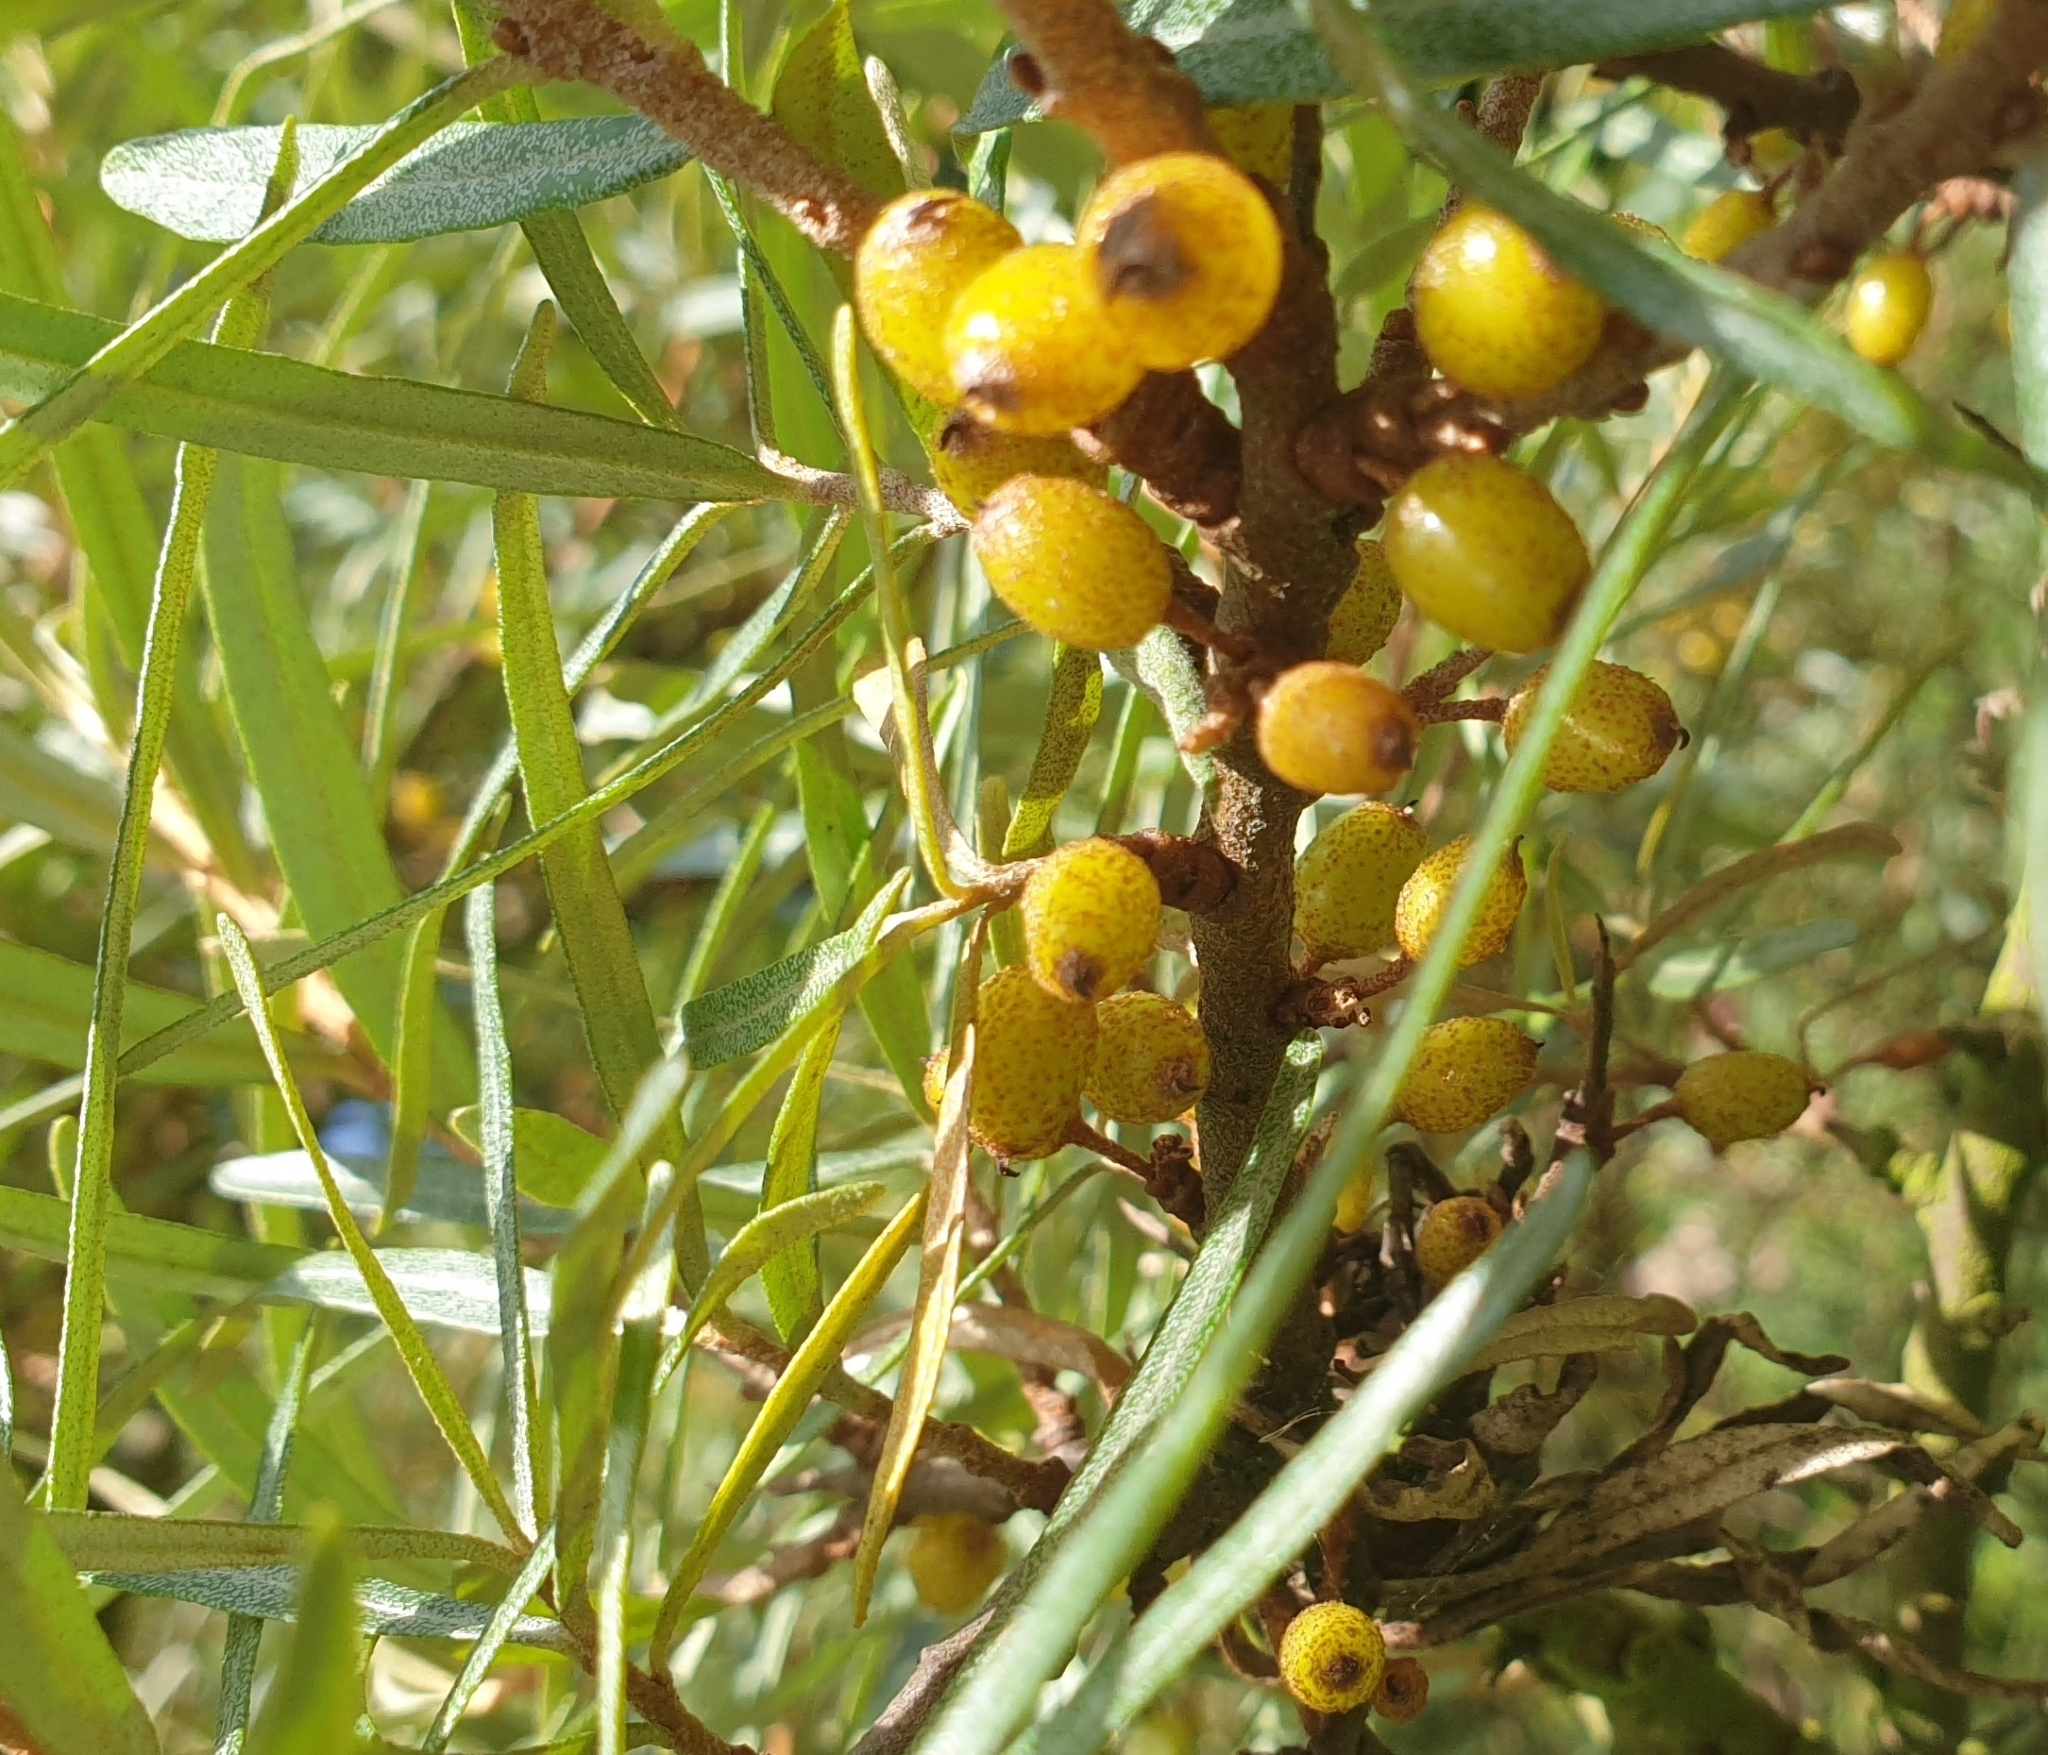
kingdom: Plantae
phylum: Tracheophyta
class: Magnoliopsida
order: Rosales
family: Elaeagnaceae
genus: Hippophae
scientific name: Hippophae rhamnoides
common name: Sea-buckthorn
